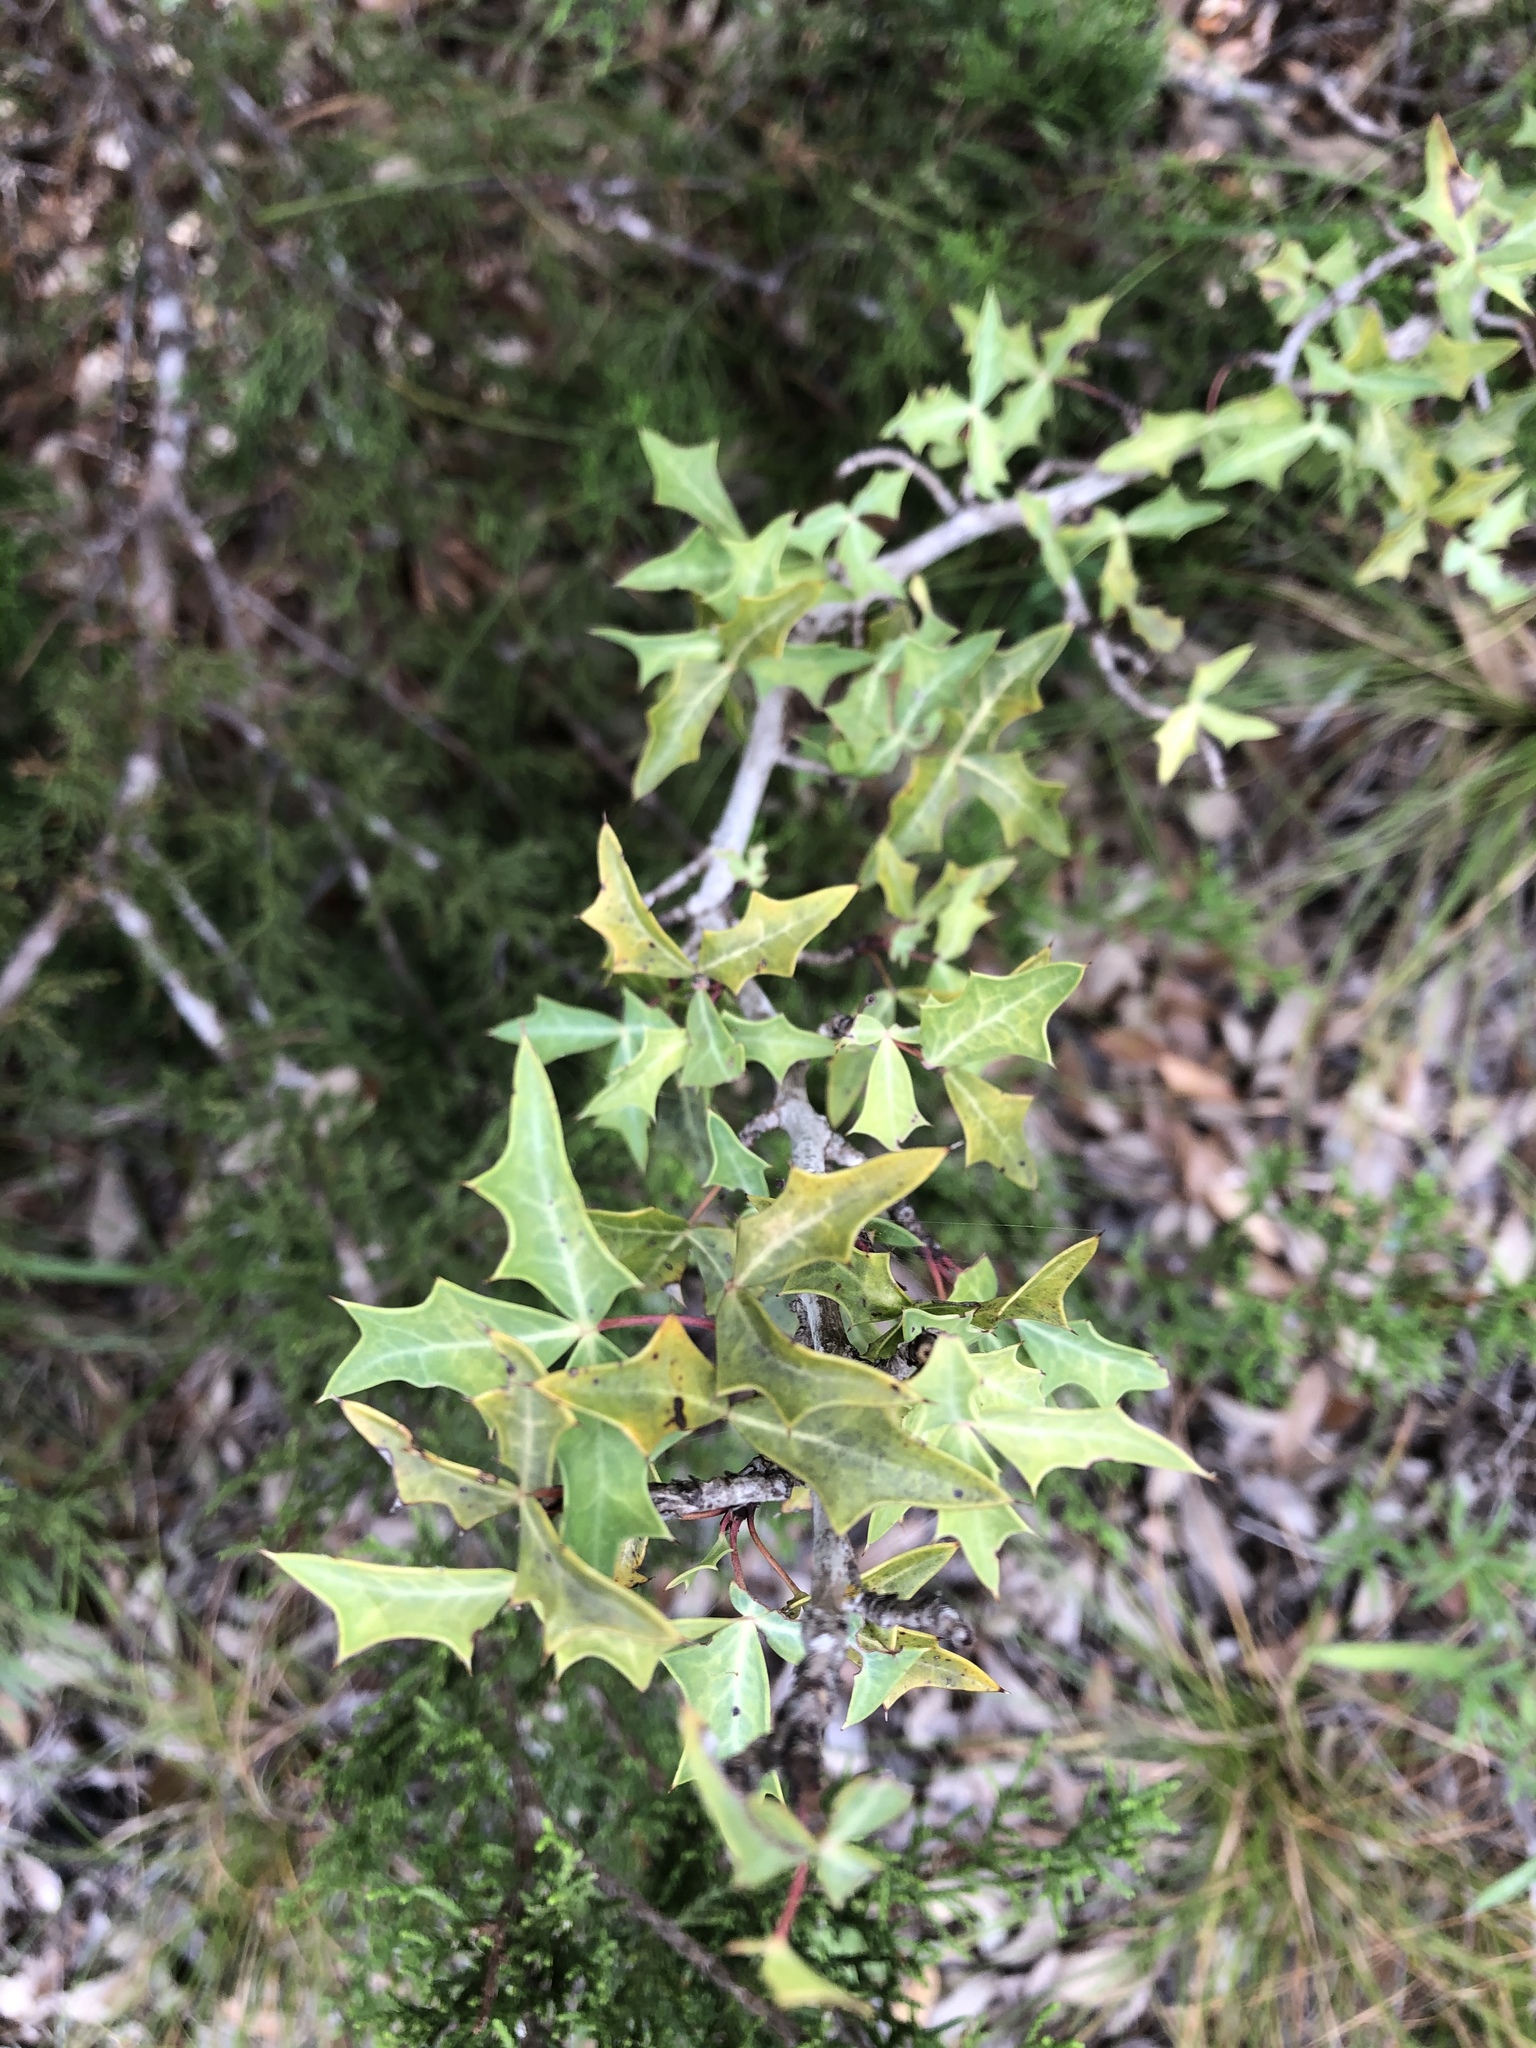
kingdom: Plantae
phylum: Tracheophyta
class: Magnoliopsida
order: Ranunculales
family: Berberidaceae
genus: Alloberberis
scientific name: Alloberberis trifoliolata
